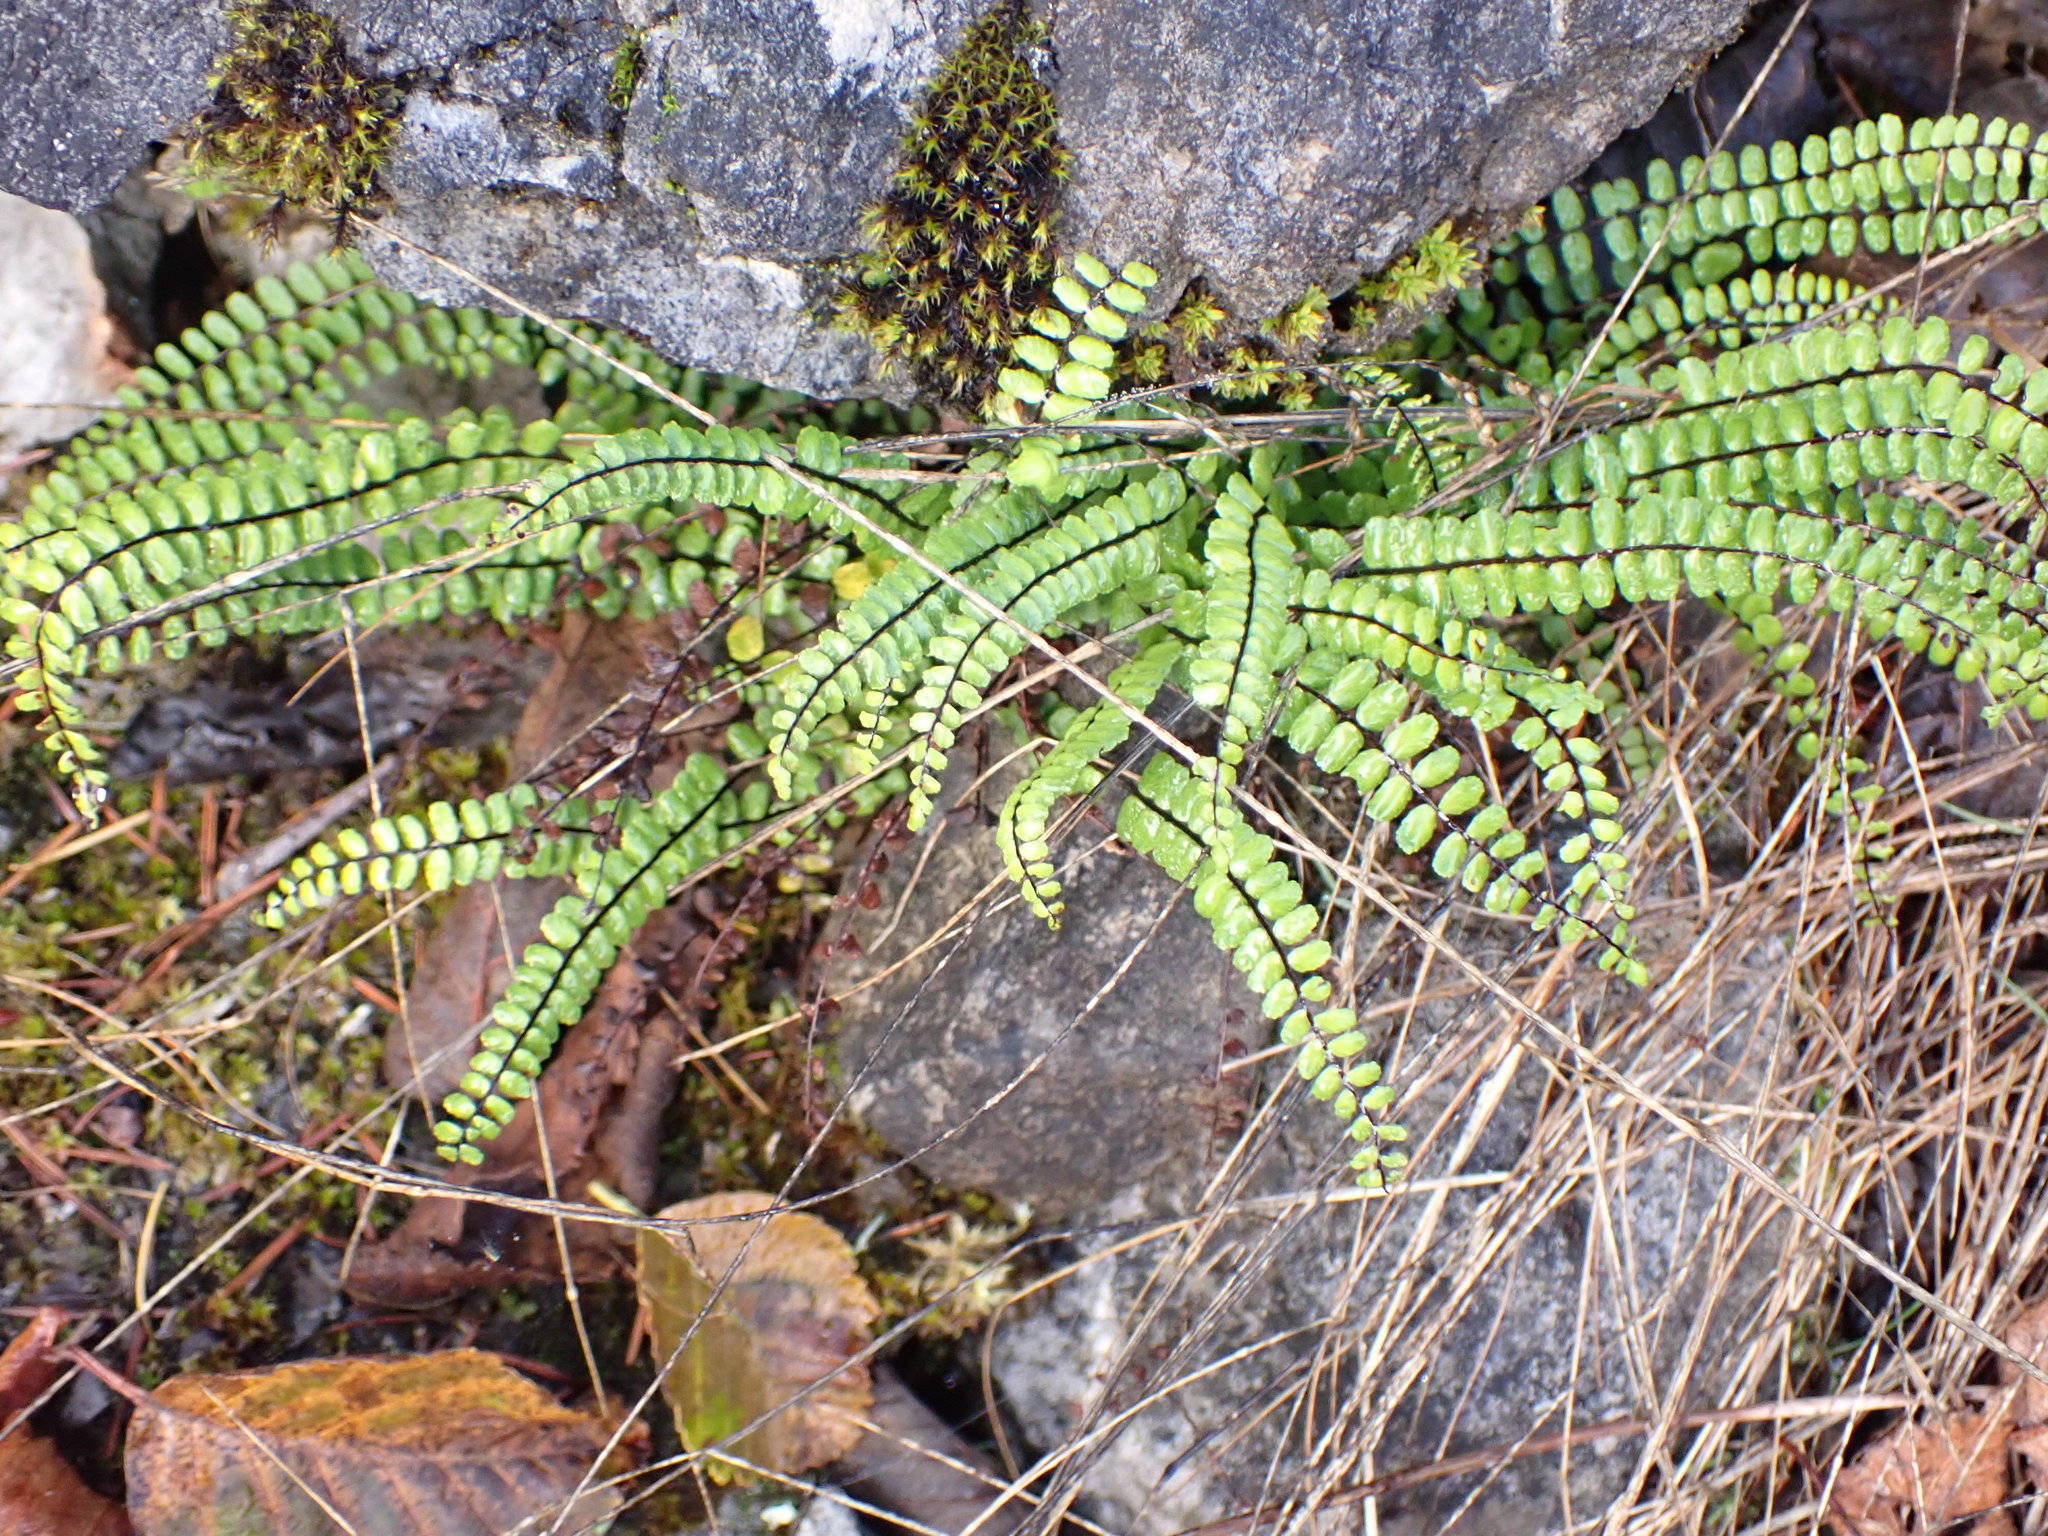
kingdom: Plantae
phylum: Tracheophyta
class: Polypodiopsida
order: Polypodiales
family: Aspleniaceae
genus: Asplenium
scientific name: Asplenium trichomanes
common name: Maidenhair spleenwort
